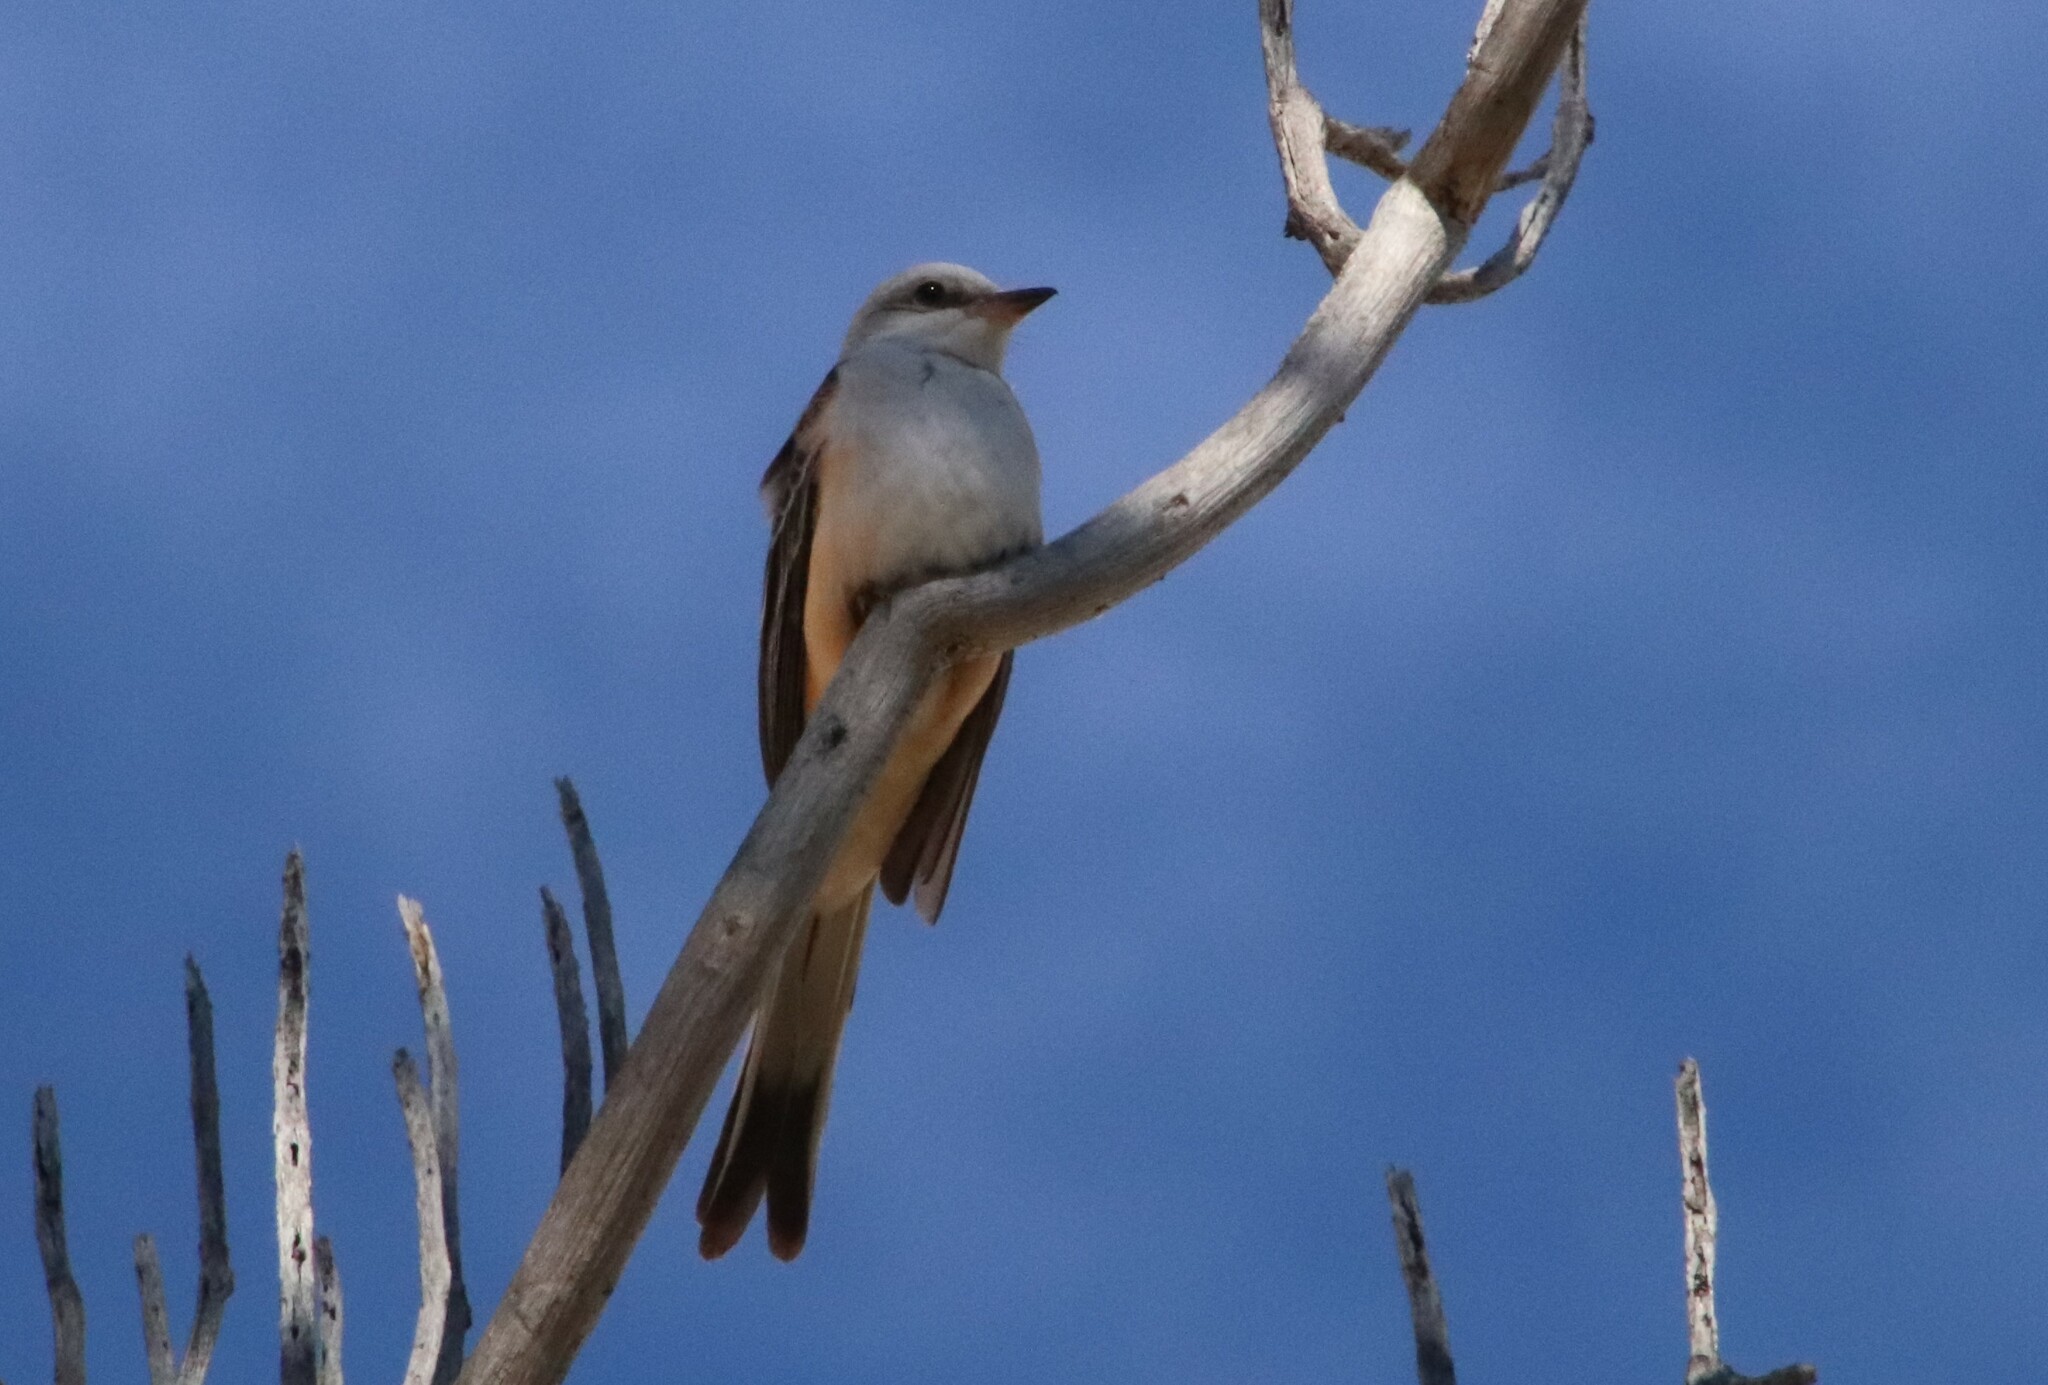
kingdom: Animalia
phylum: Chordata
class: Aves
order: Passeriformes
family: Tyrannidae
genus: Tyrannus
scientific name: Tyrannus forficatus
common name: Scissor-tailed flycatcher
